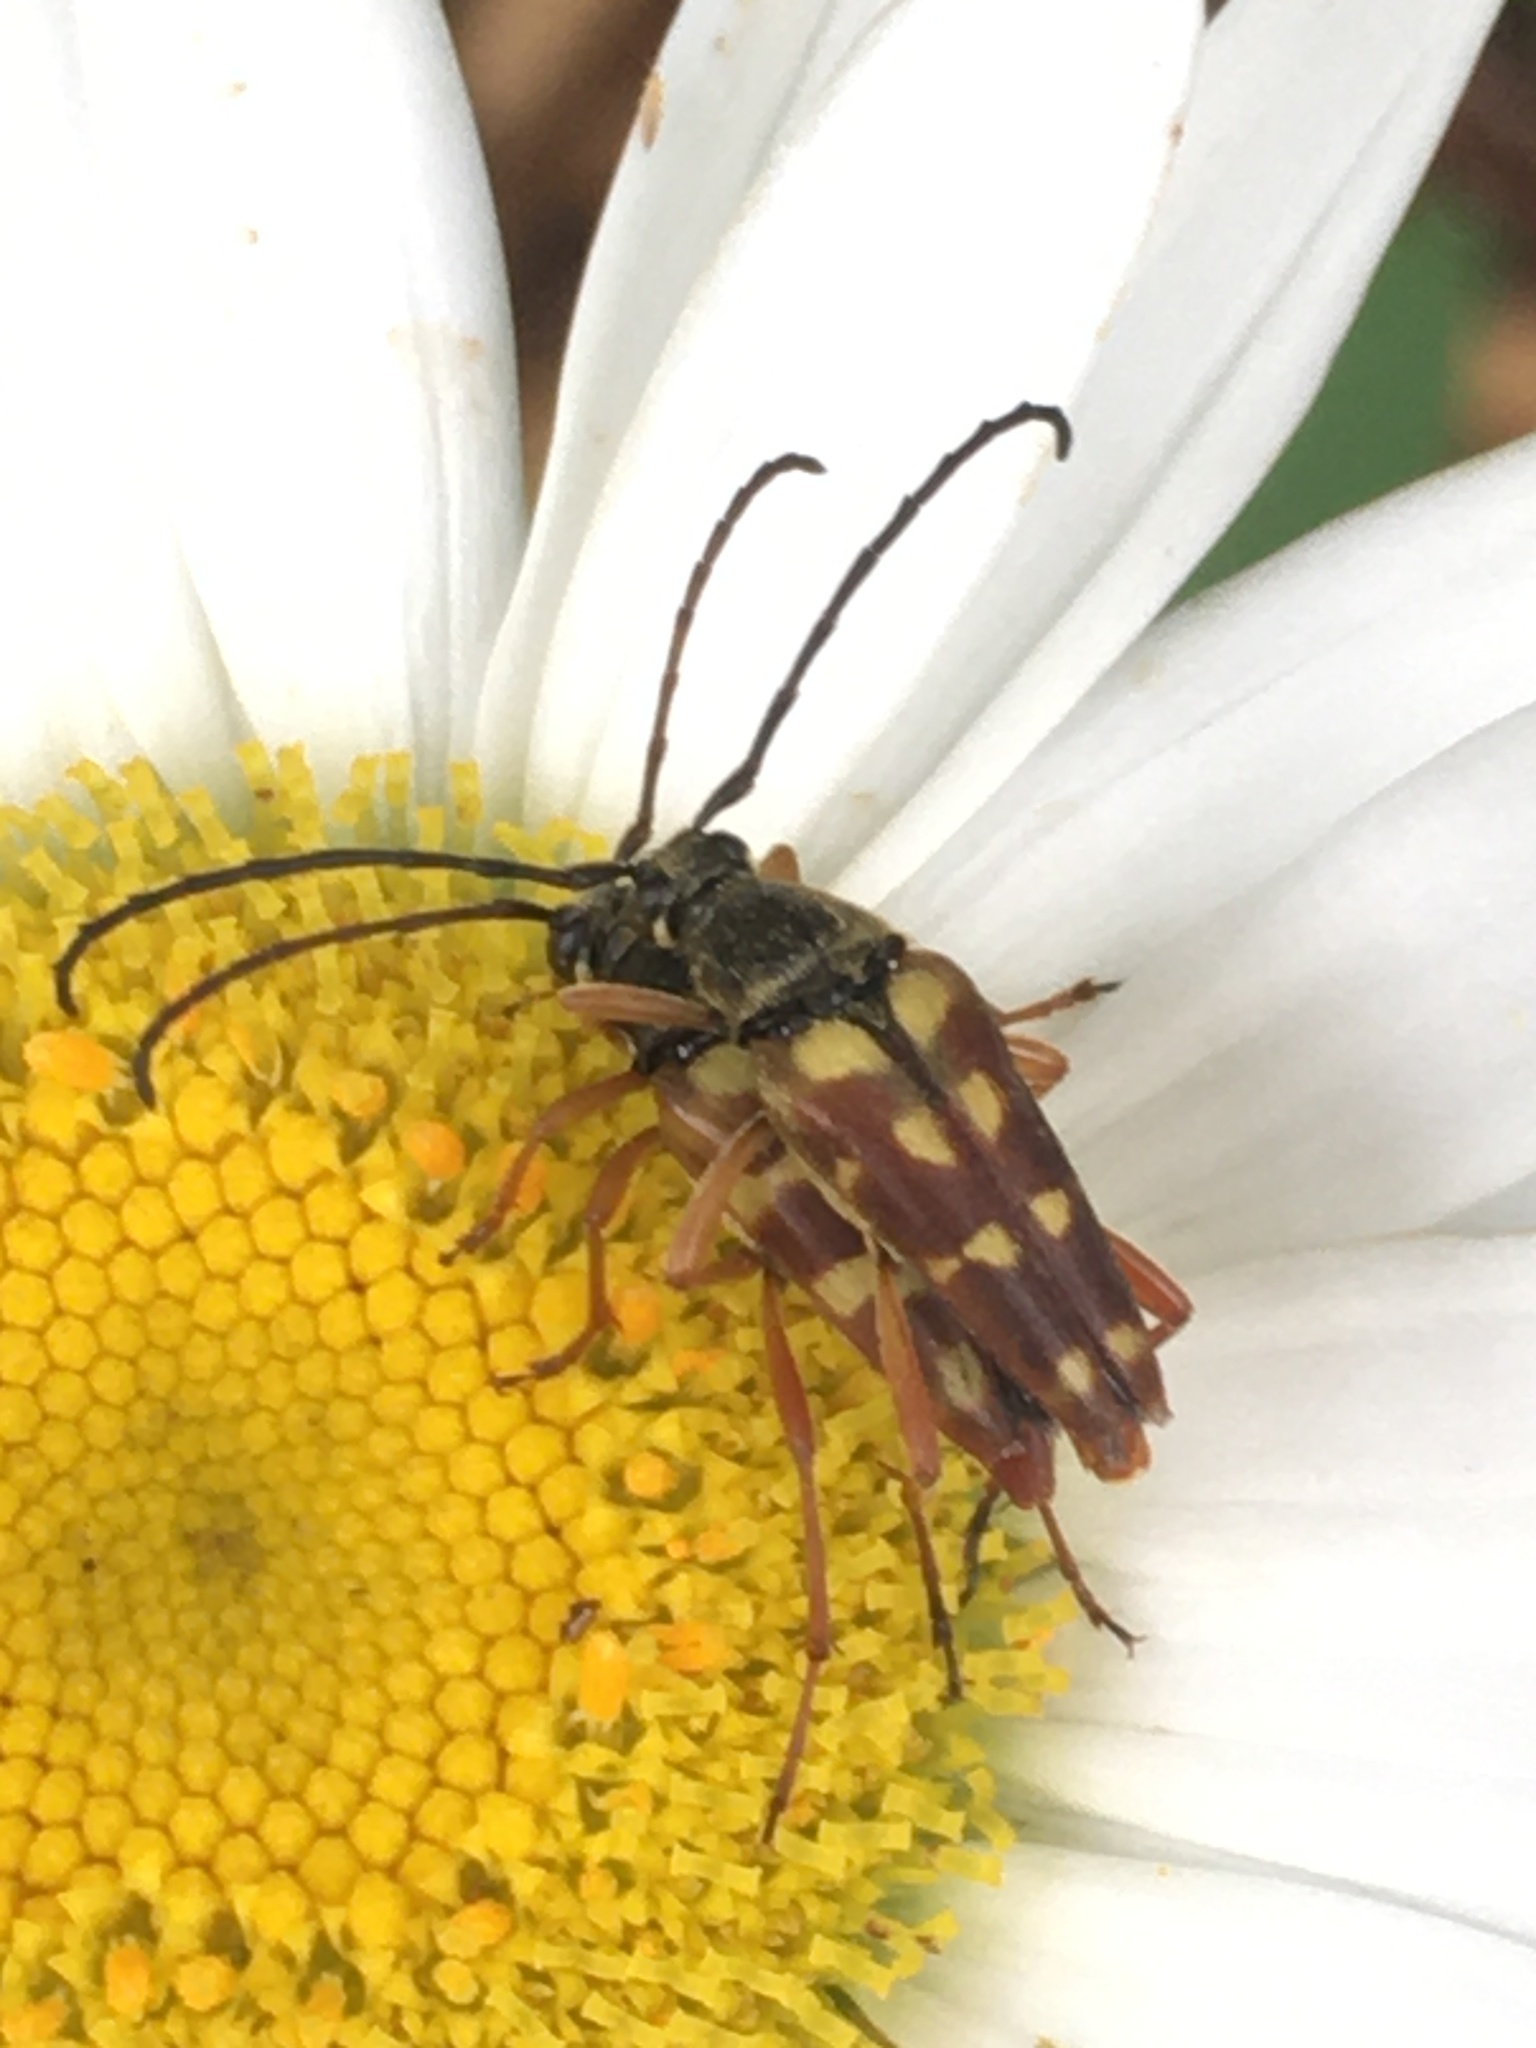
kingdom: Animalia
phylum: Arthropoda
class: Insecta
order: Coleoptera
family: Cerambycidae
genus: Typocerus
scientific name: Typocerus velutinus
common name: Banded longhorn beetle
